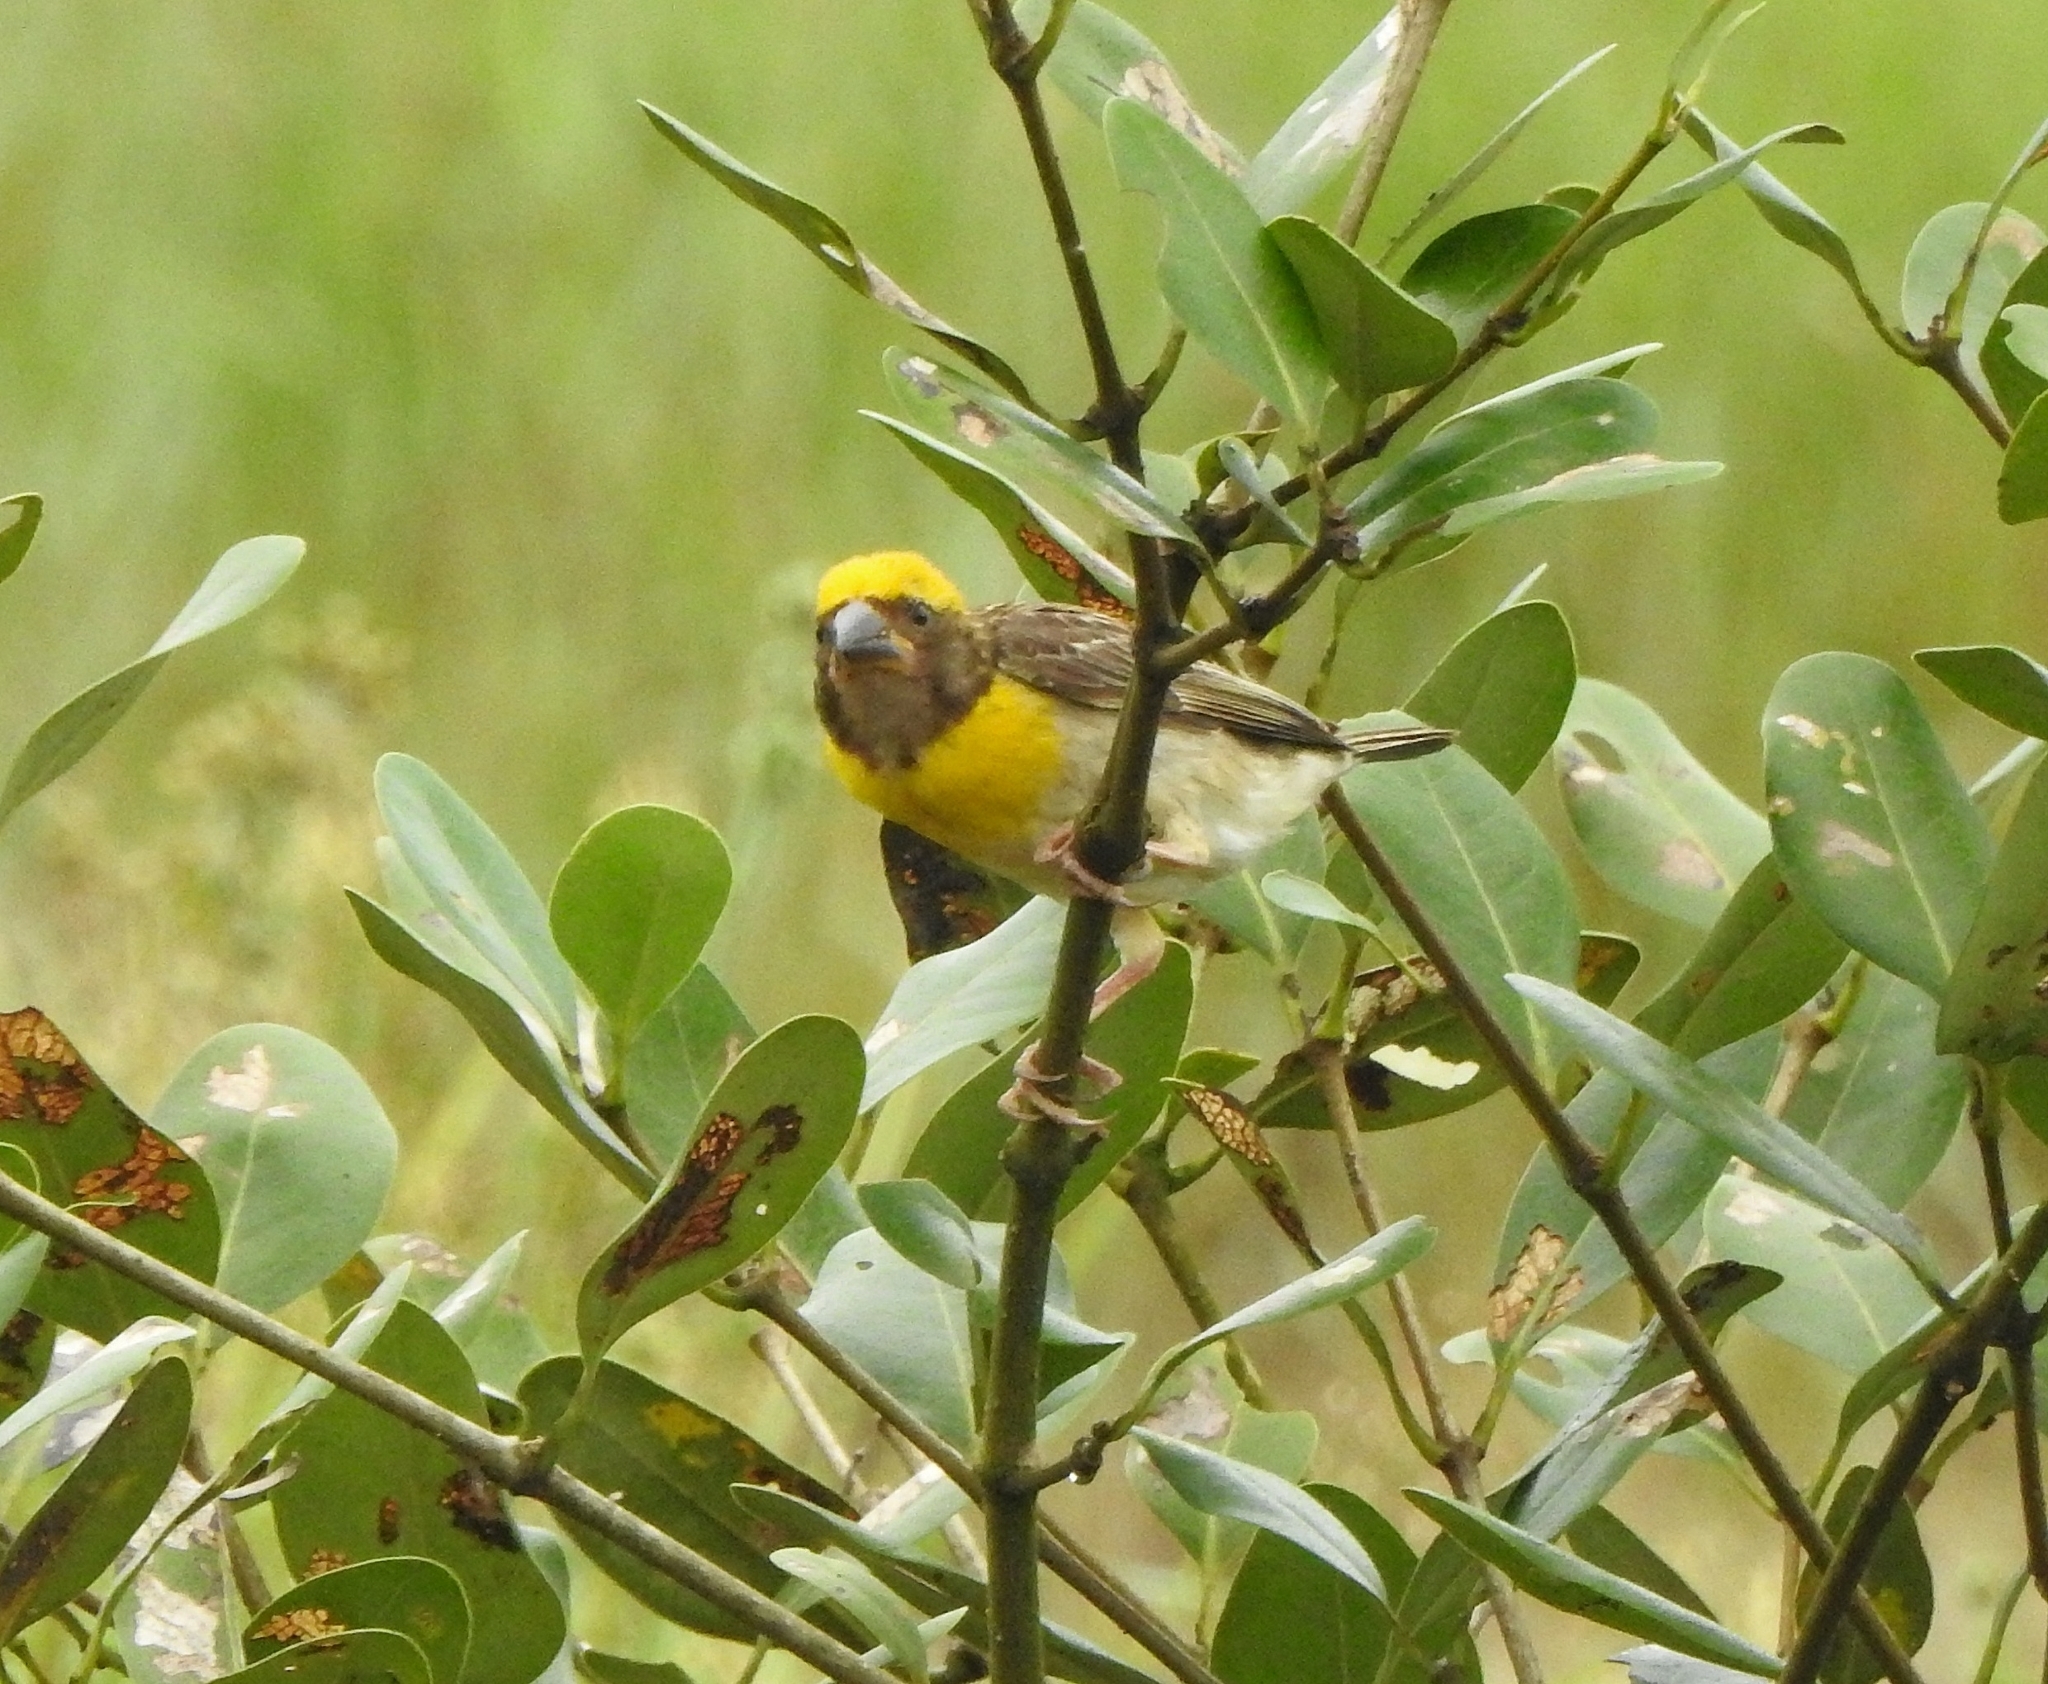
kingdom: Animalia
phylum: Chordata
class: Aves
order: Passeriformes
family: Ploceidae
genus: Ploceus
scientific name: Ploceus philippinus
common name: Baya weaver
